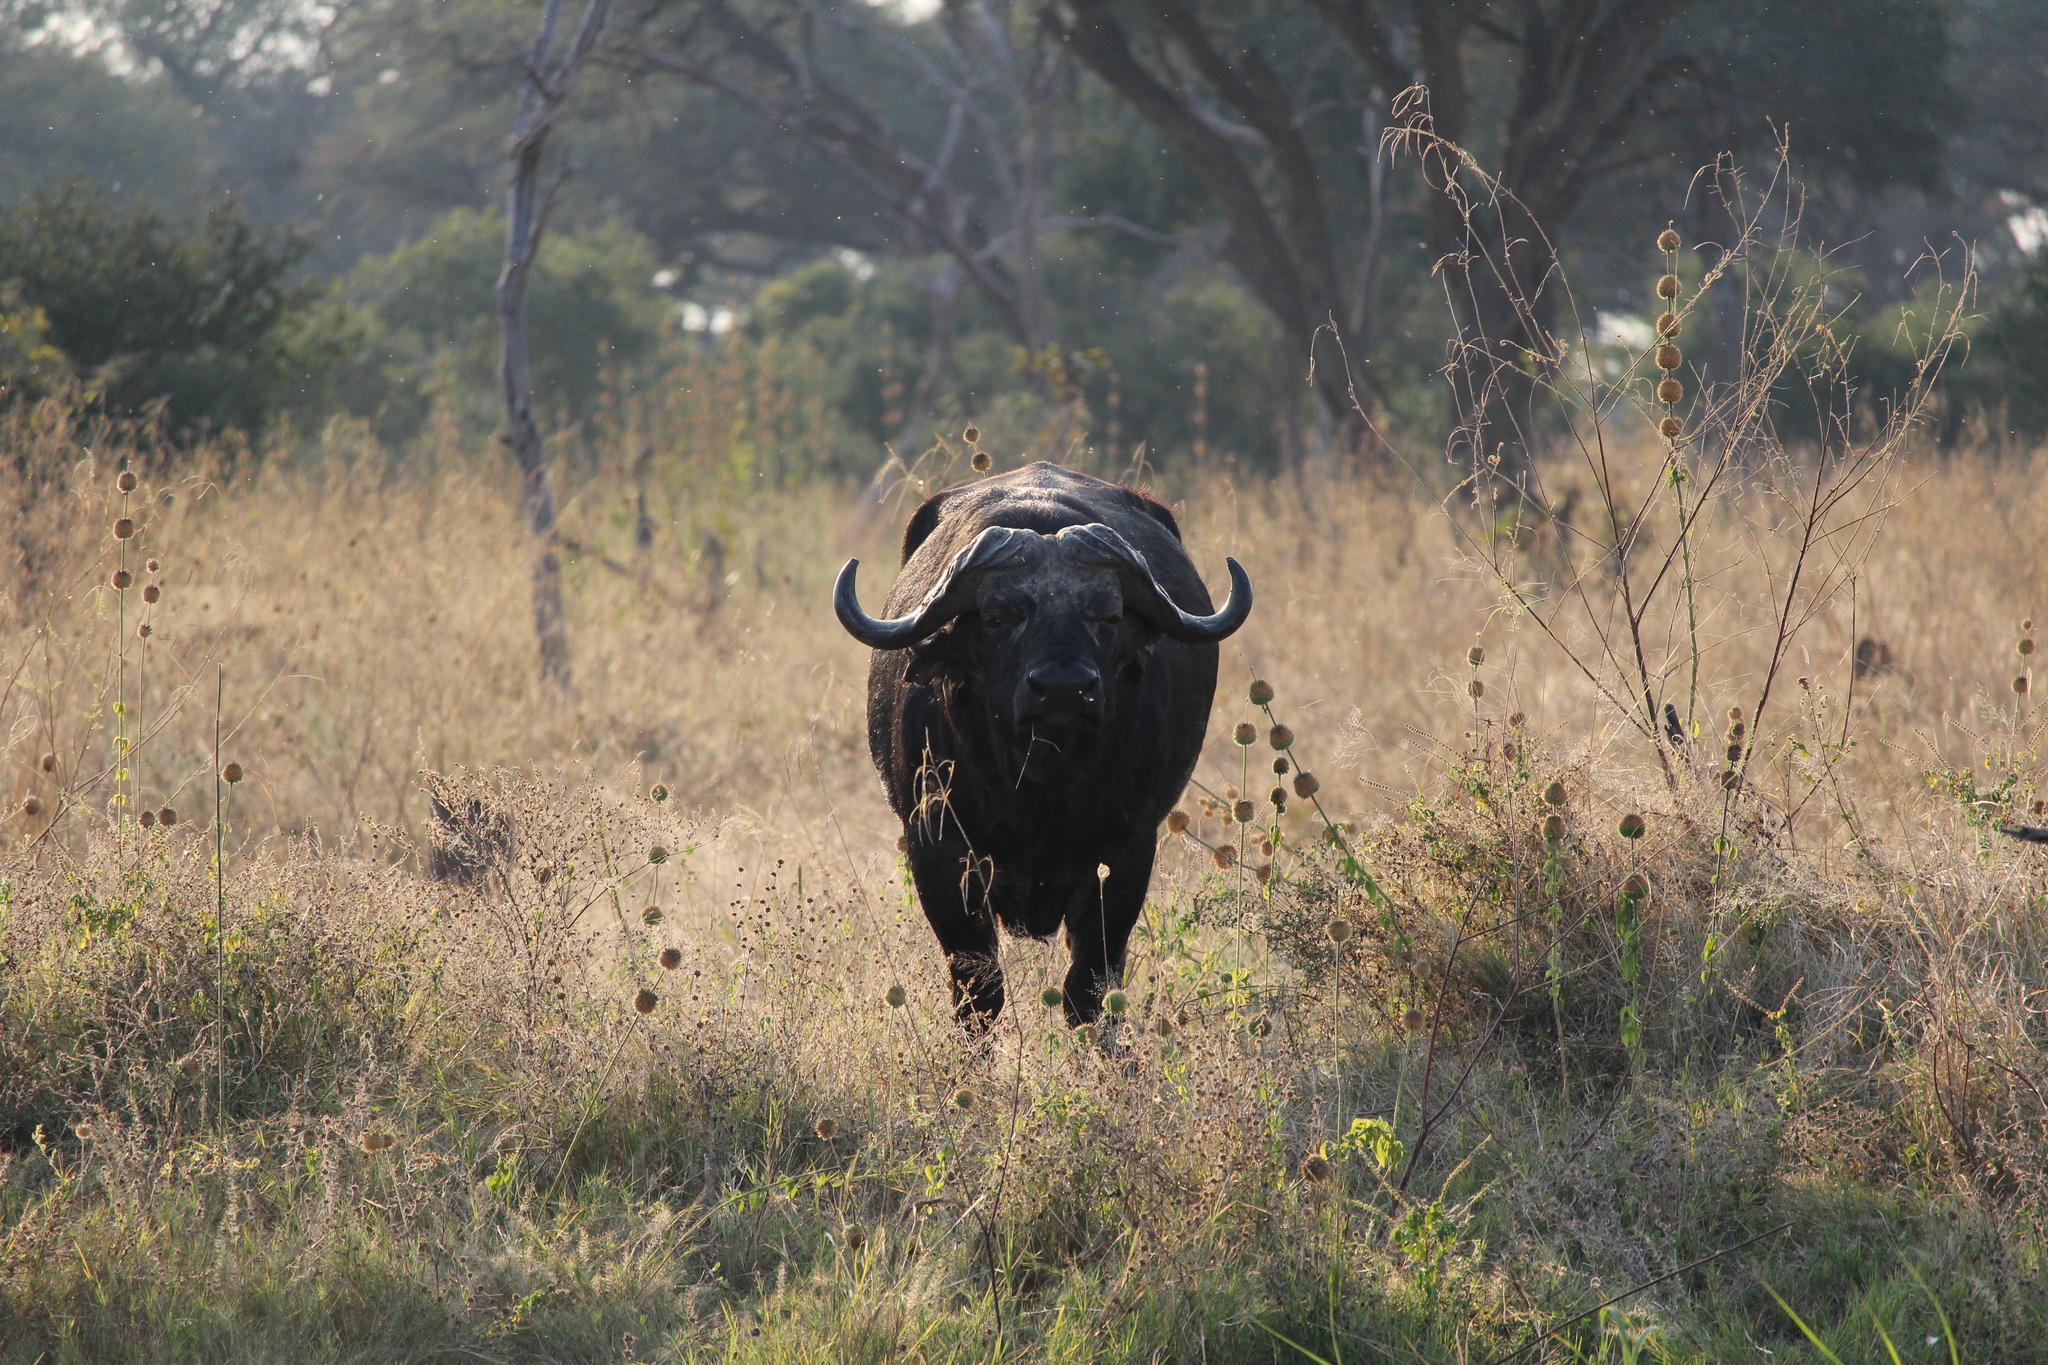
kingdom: Animalia
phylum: Chordata
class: Mammalia
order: Artiodactyla
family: Bovidae
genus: Syncerus
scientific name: Syncerus caffer
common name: African buffalo
